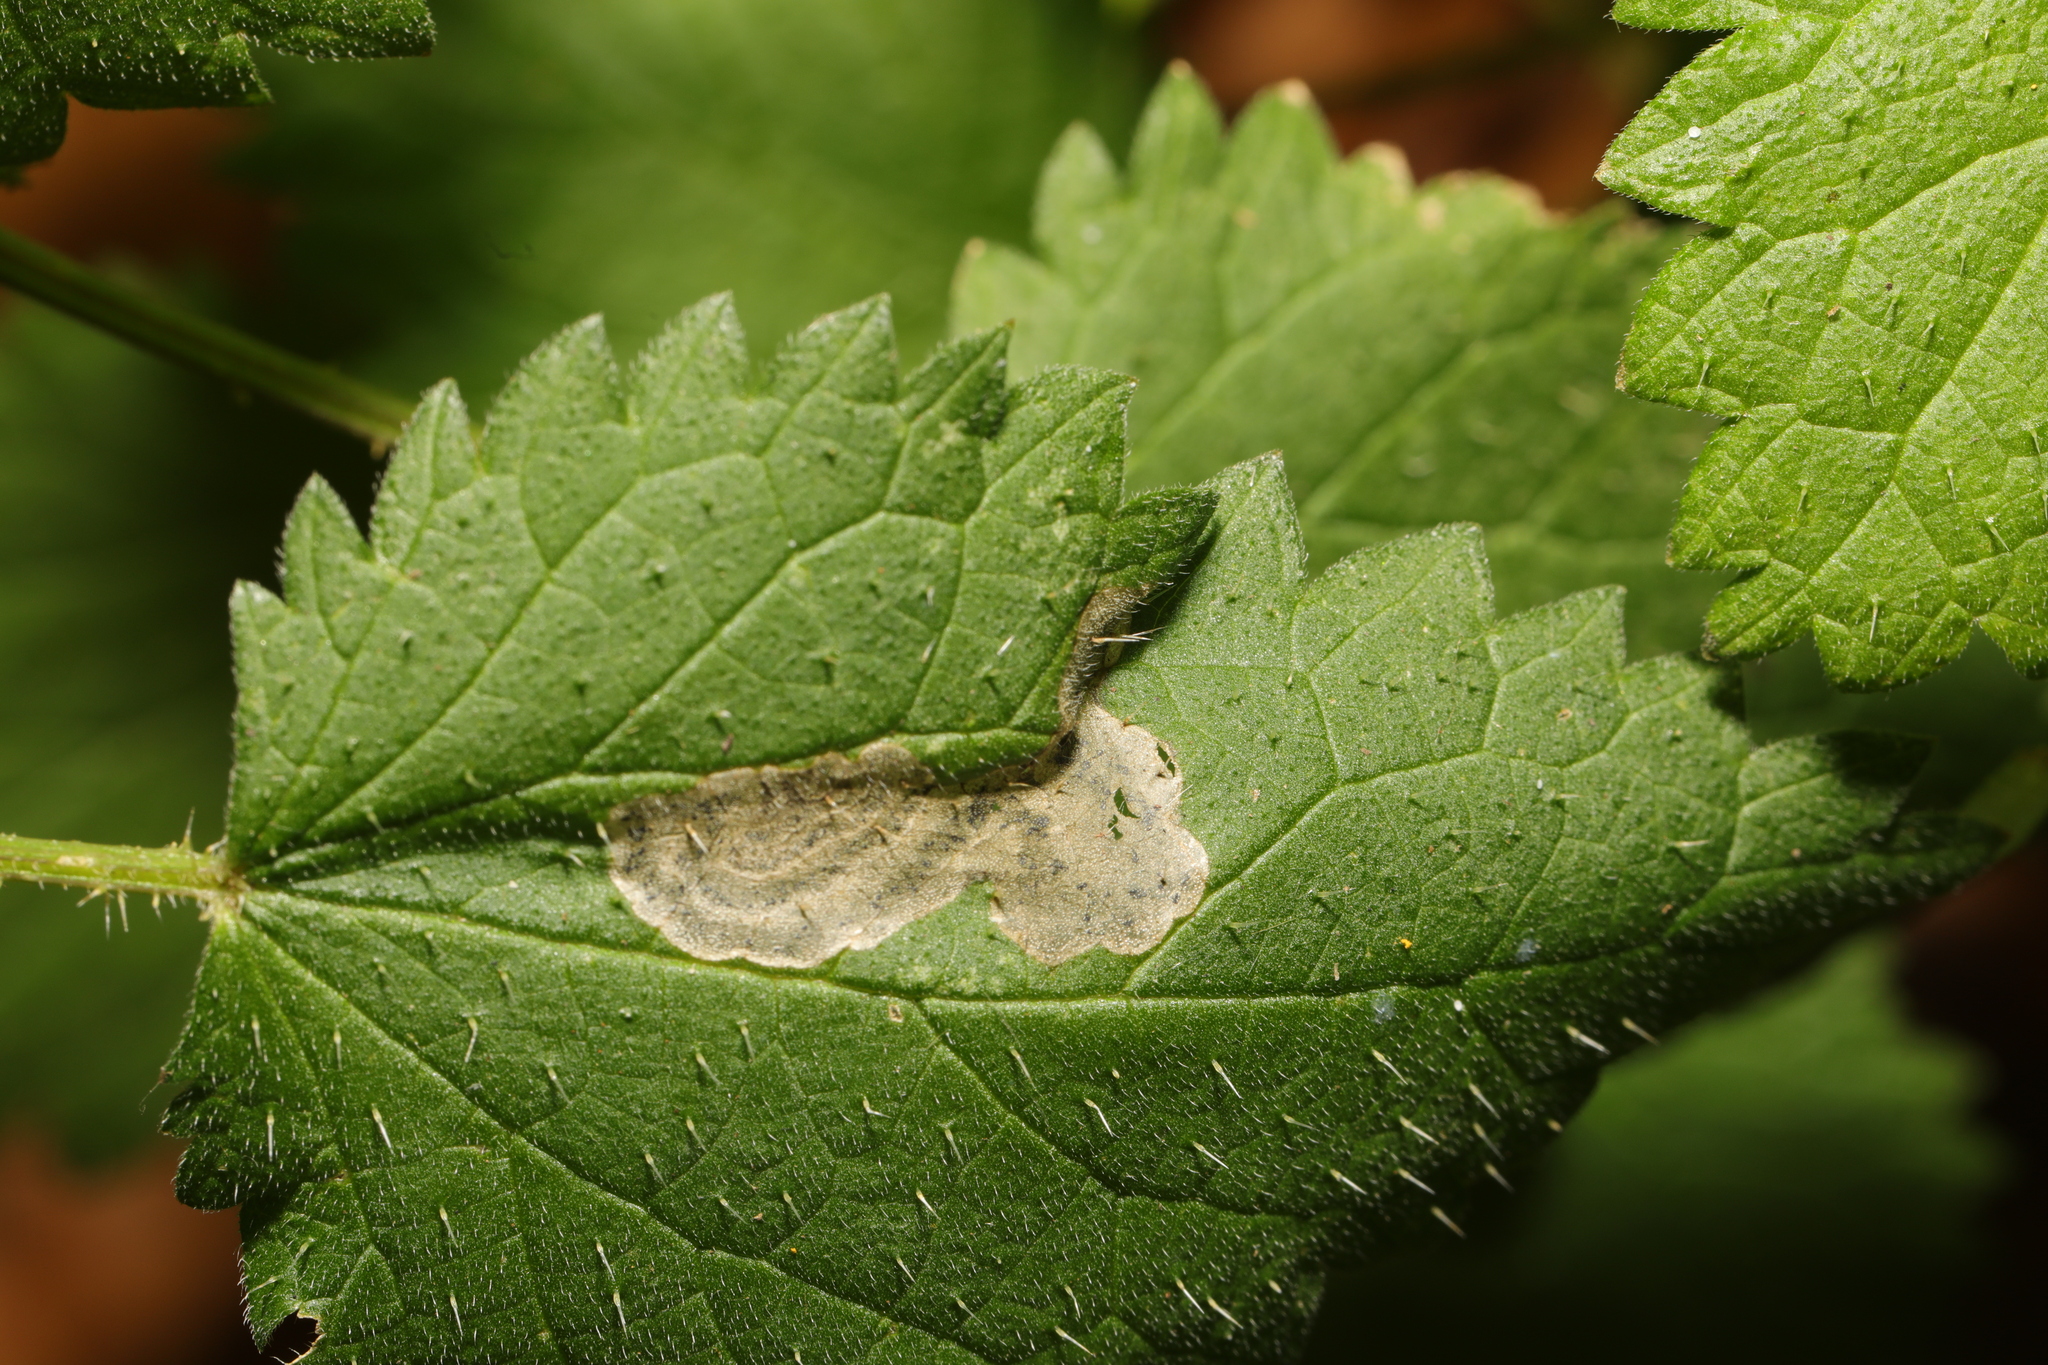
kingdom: Animalia
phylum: Arthropoda
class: Insecta
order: Diptera
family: Agromyzidae
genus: Agromyza
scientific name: Agromyza anthracina
